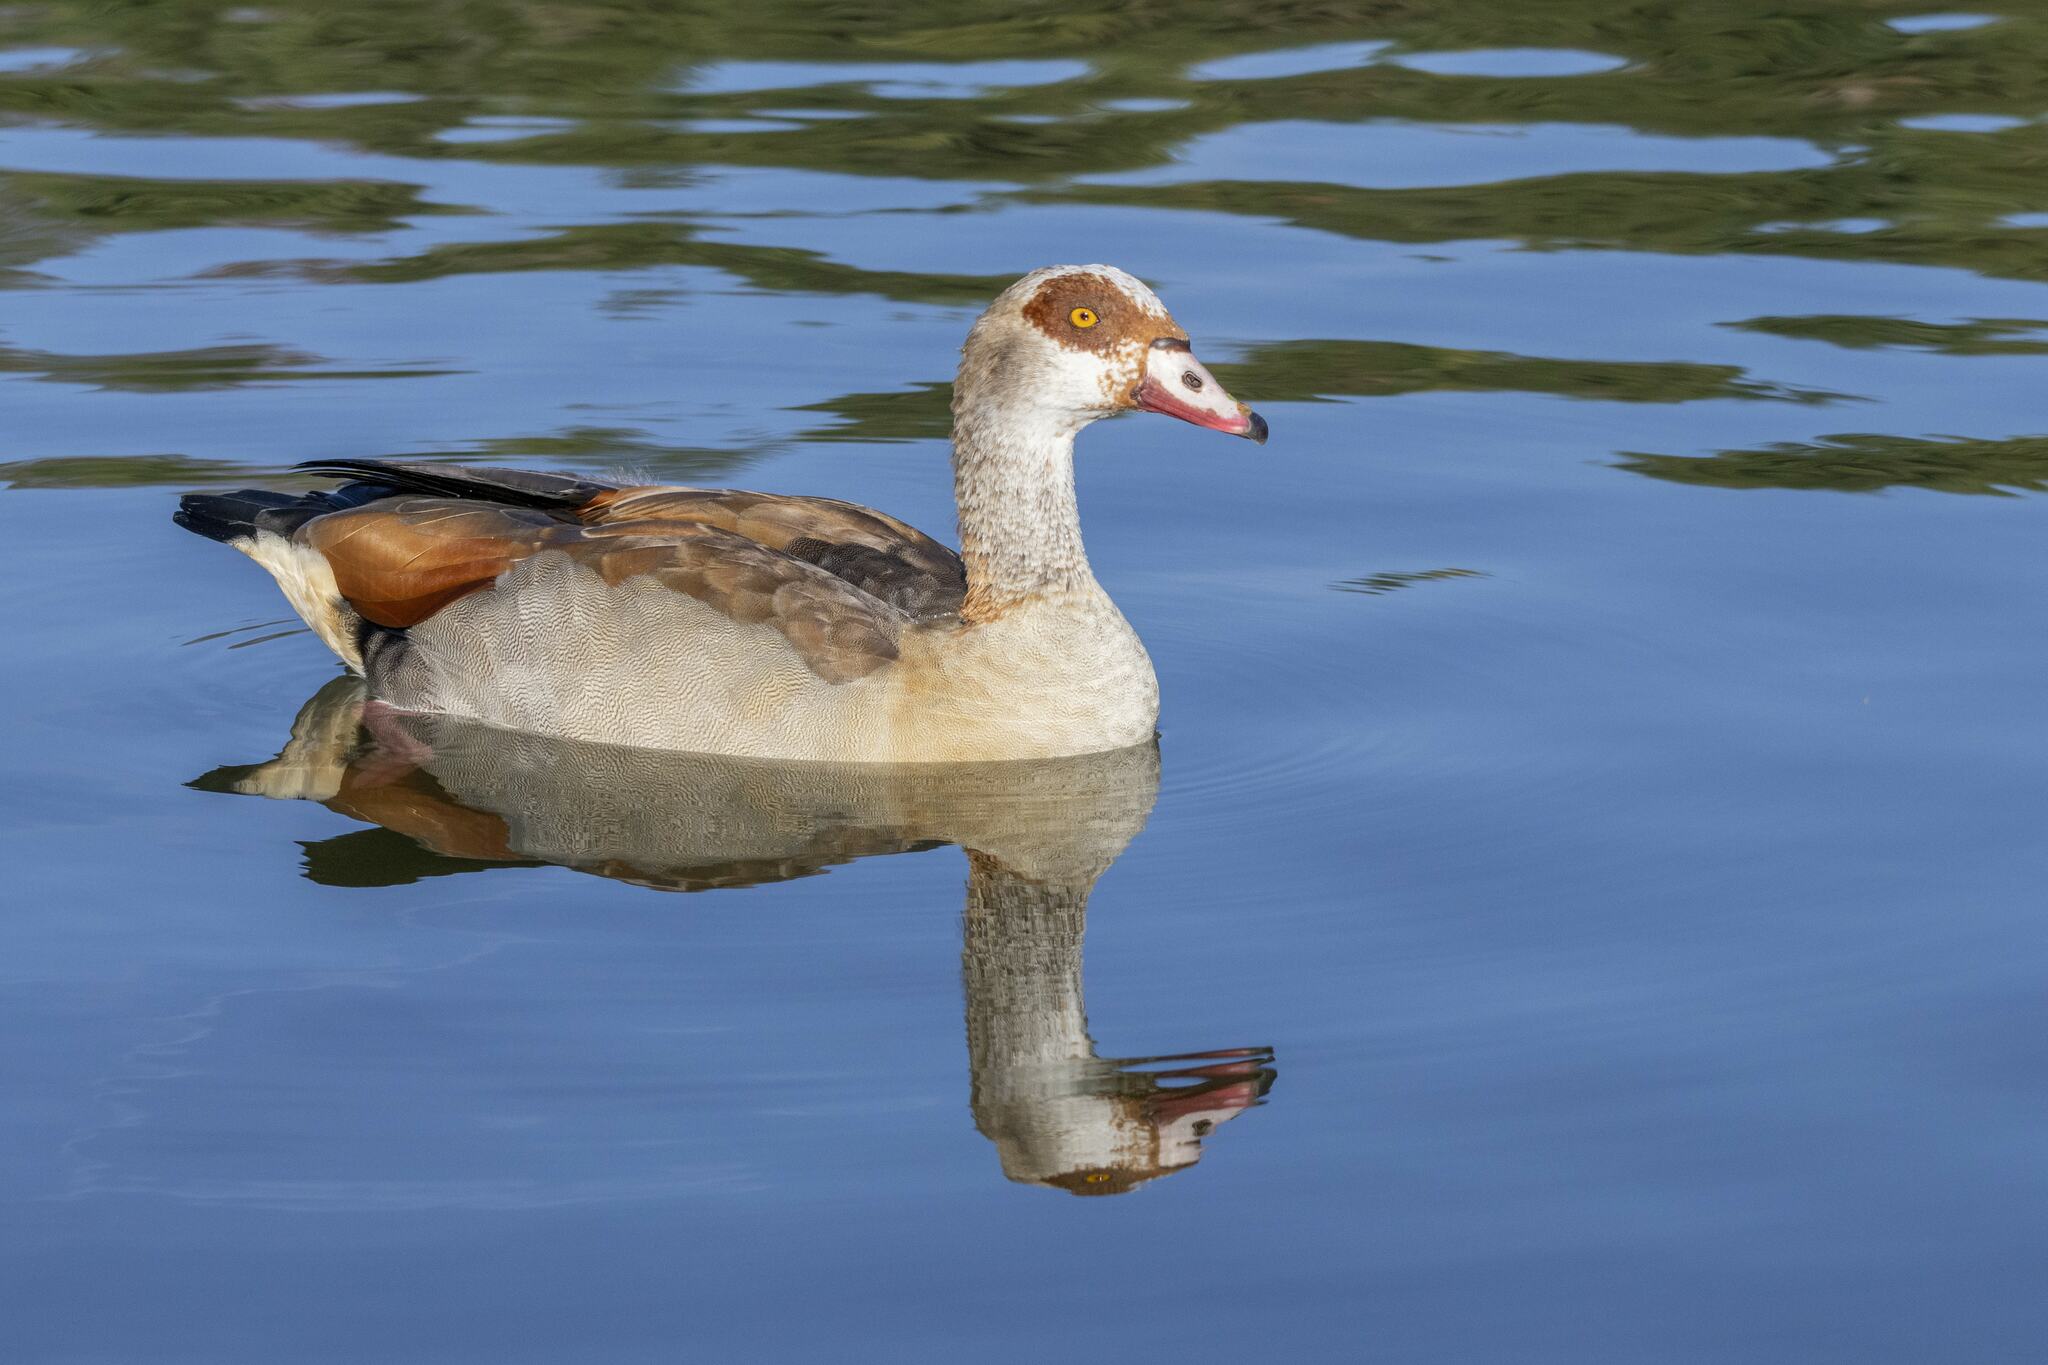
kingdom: Animalia
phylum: Chordata
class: Aves
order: Anseriformes
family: Anatidae
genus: Alopochen
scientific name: Alopochen aegyptiaca
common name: Egyptian goose
